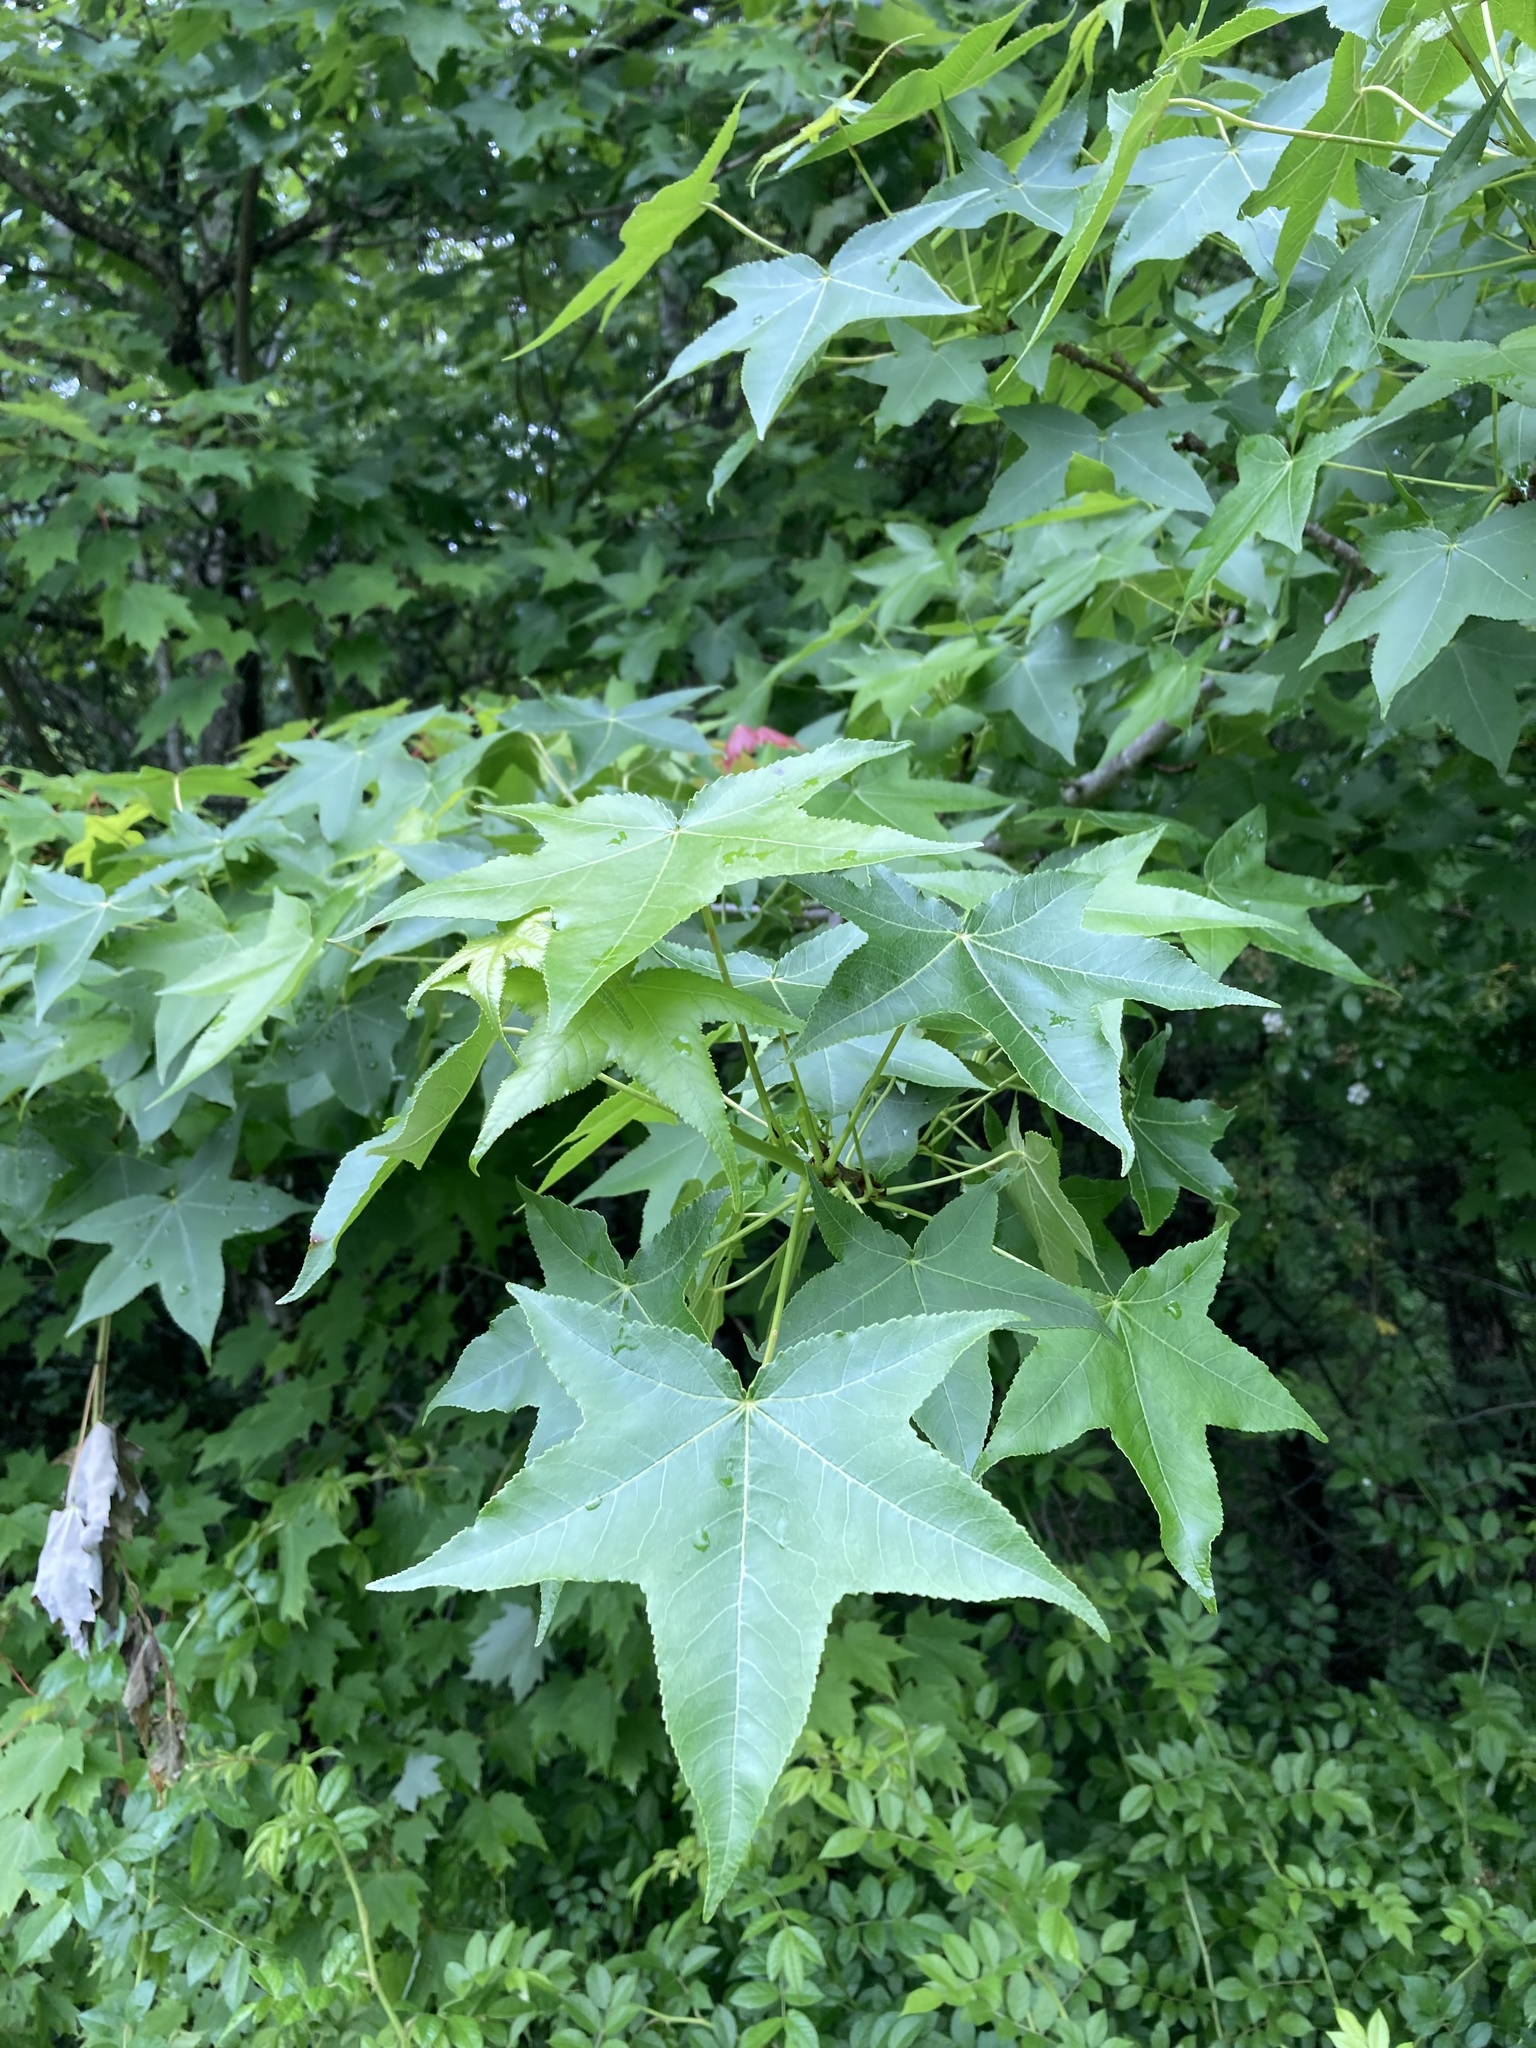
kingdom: Plantae
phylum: Tracheophyta
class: Magnoliopsida
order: Saxifragales
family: Altingiaceae
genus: Liquidambar
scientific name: Liquidambar styraciflua
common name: Sweet gum
